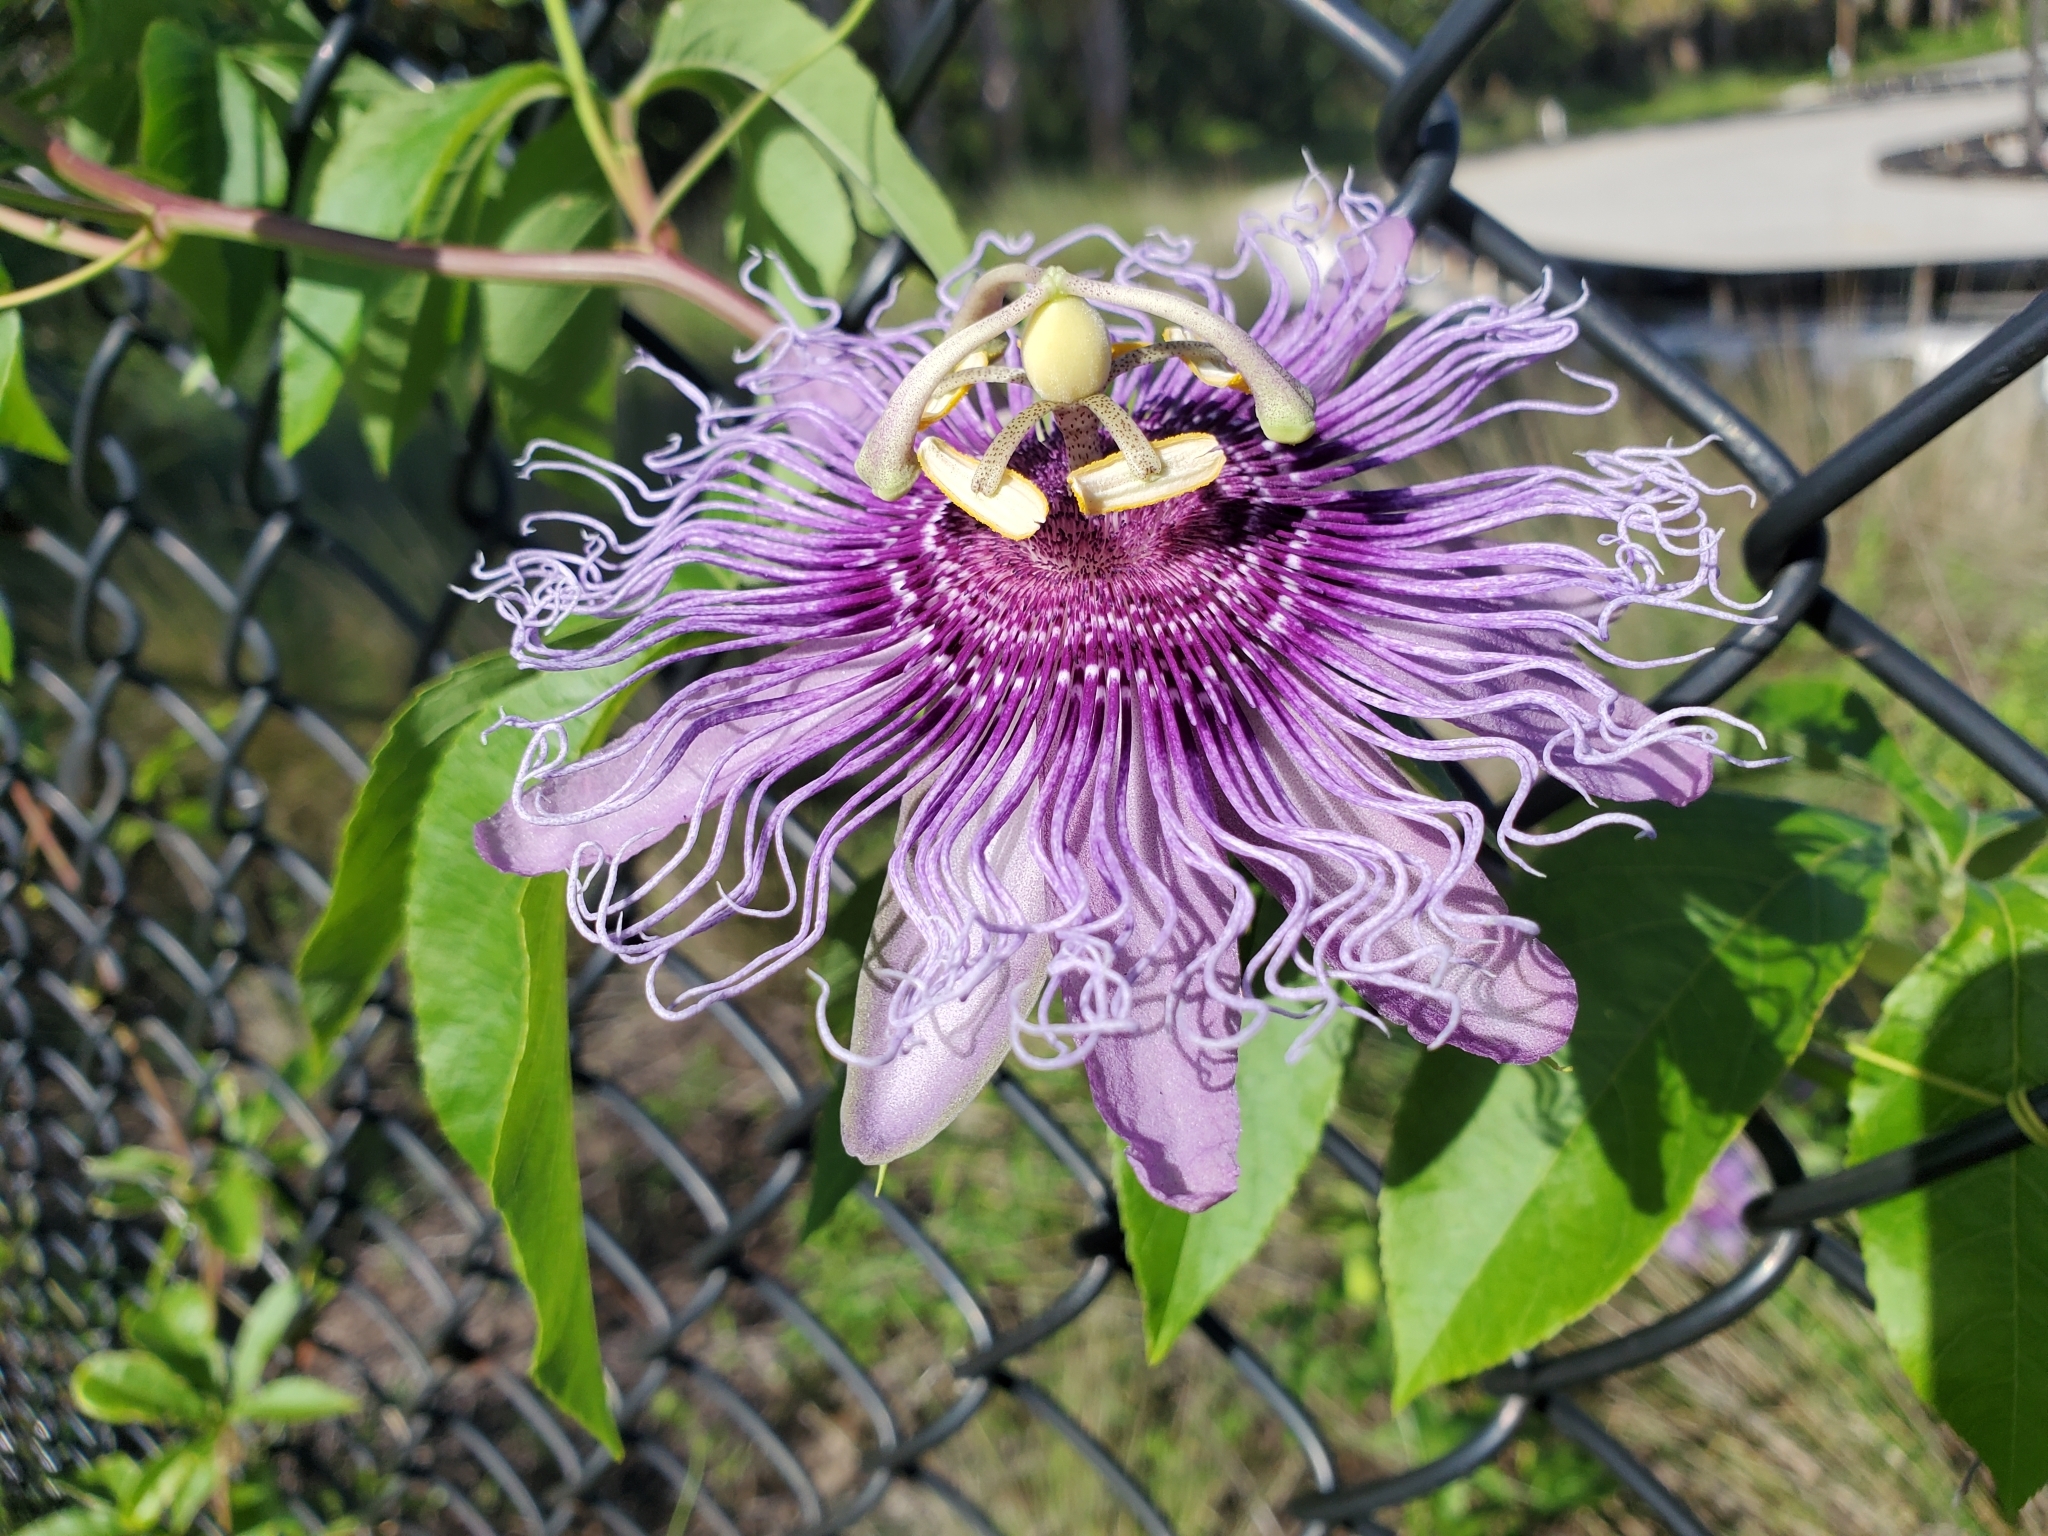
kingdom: Plantae
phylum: Tracheophyta
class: Magnoliopsida
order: Malpighiales
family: Passifloraceae
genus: Passiflora
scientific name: Passiflora
